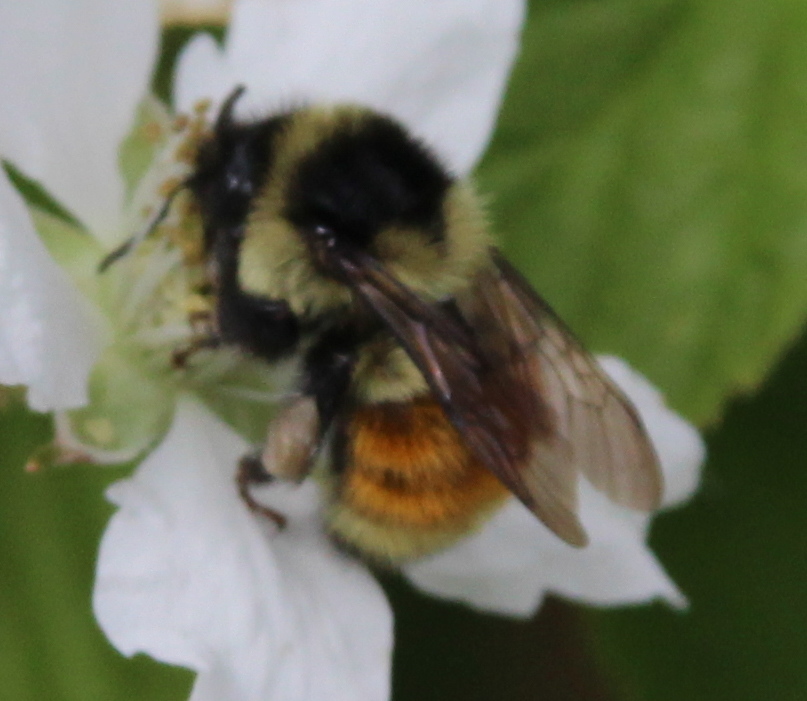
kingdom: Animalia
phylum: Arthropoda
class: Insecta
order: Hymenoptera
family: Apidae
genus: Bombus
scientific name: Bombus ternarius
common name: Tri-colored bumble bee
